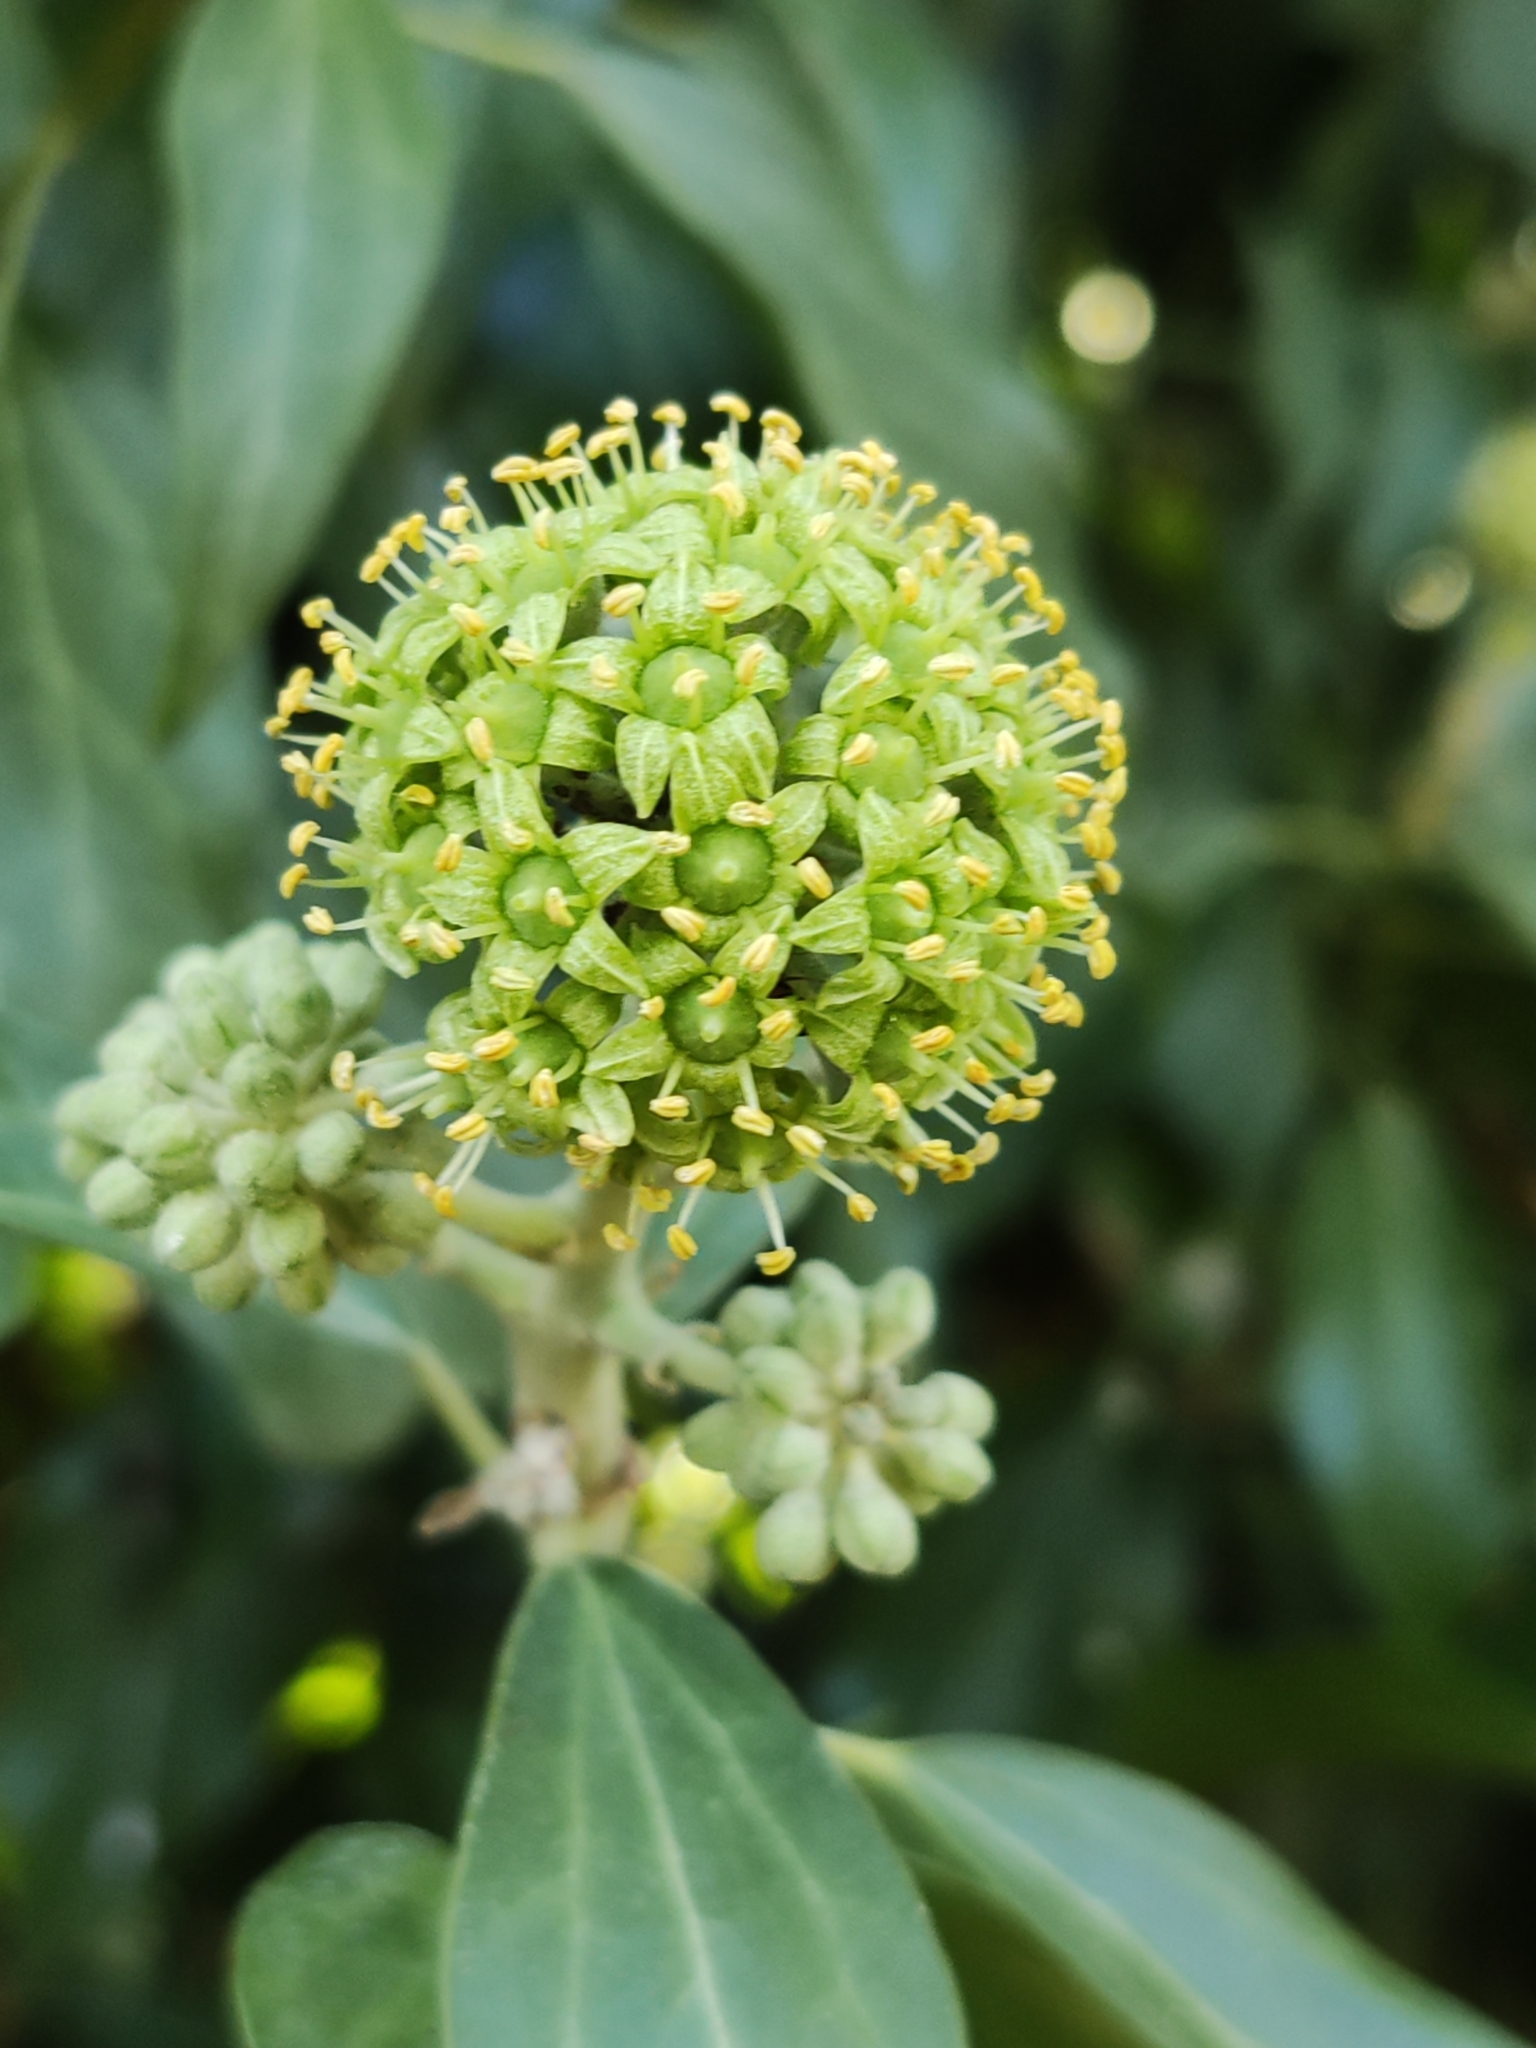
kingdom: Plantae
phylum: Tracheophyta
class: Magnoliopsida
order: Apiales
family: Araliaceae
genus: Hedera
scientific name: Hedera helix
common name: Ivy
